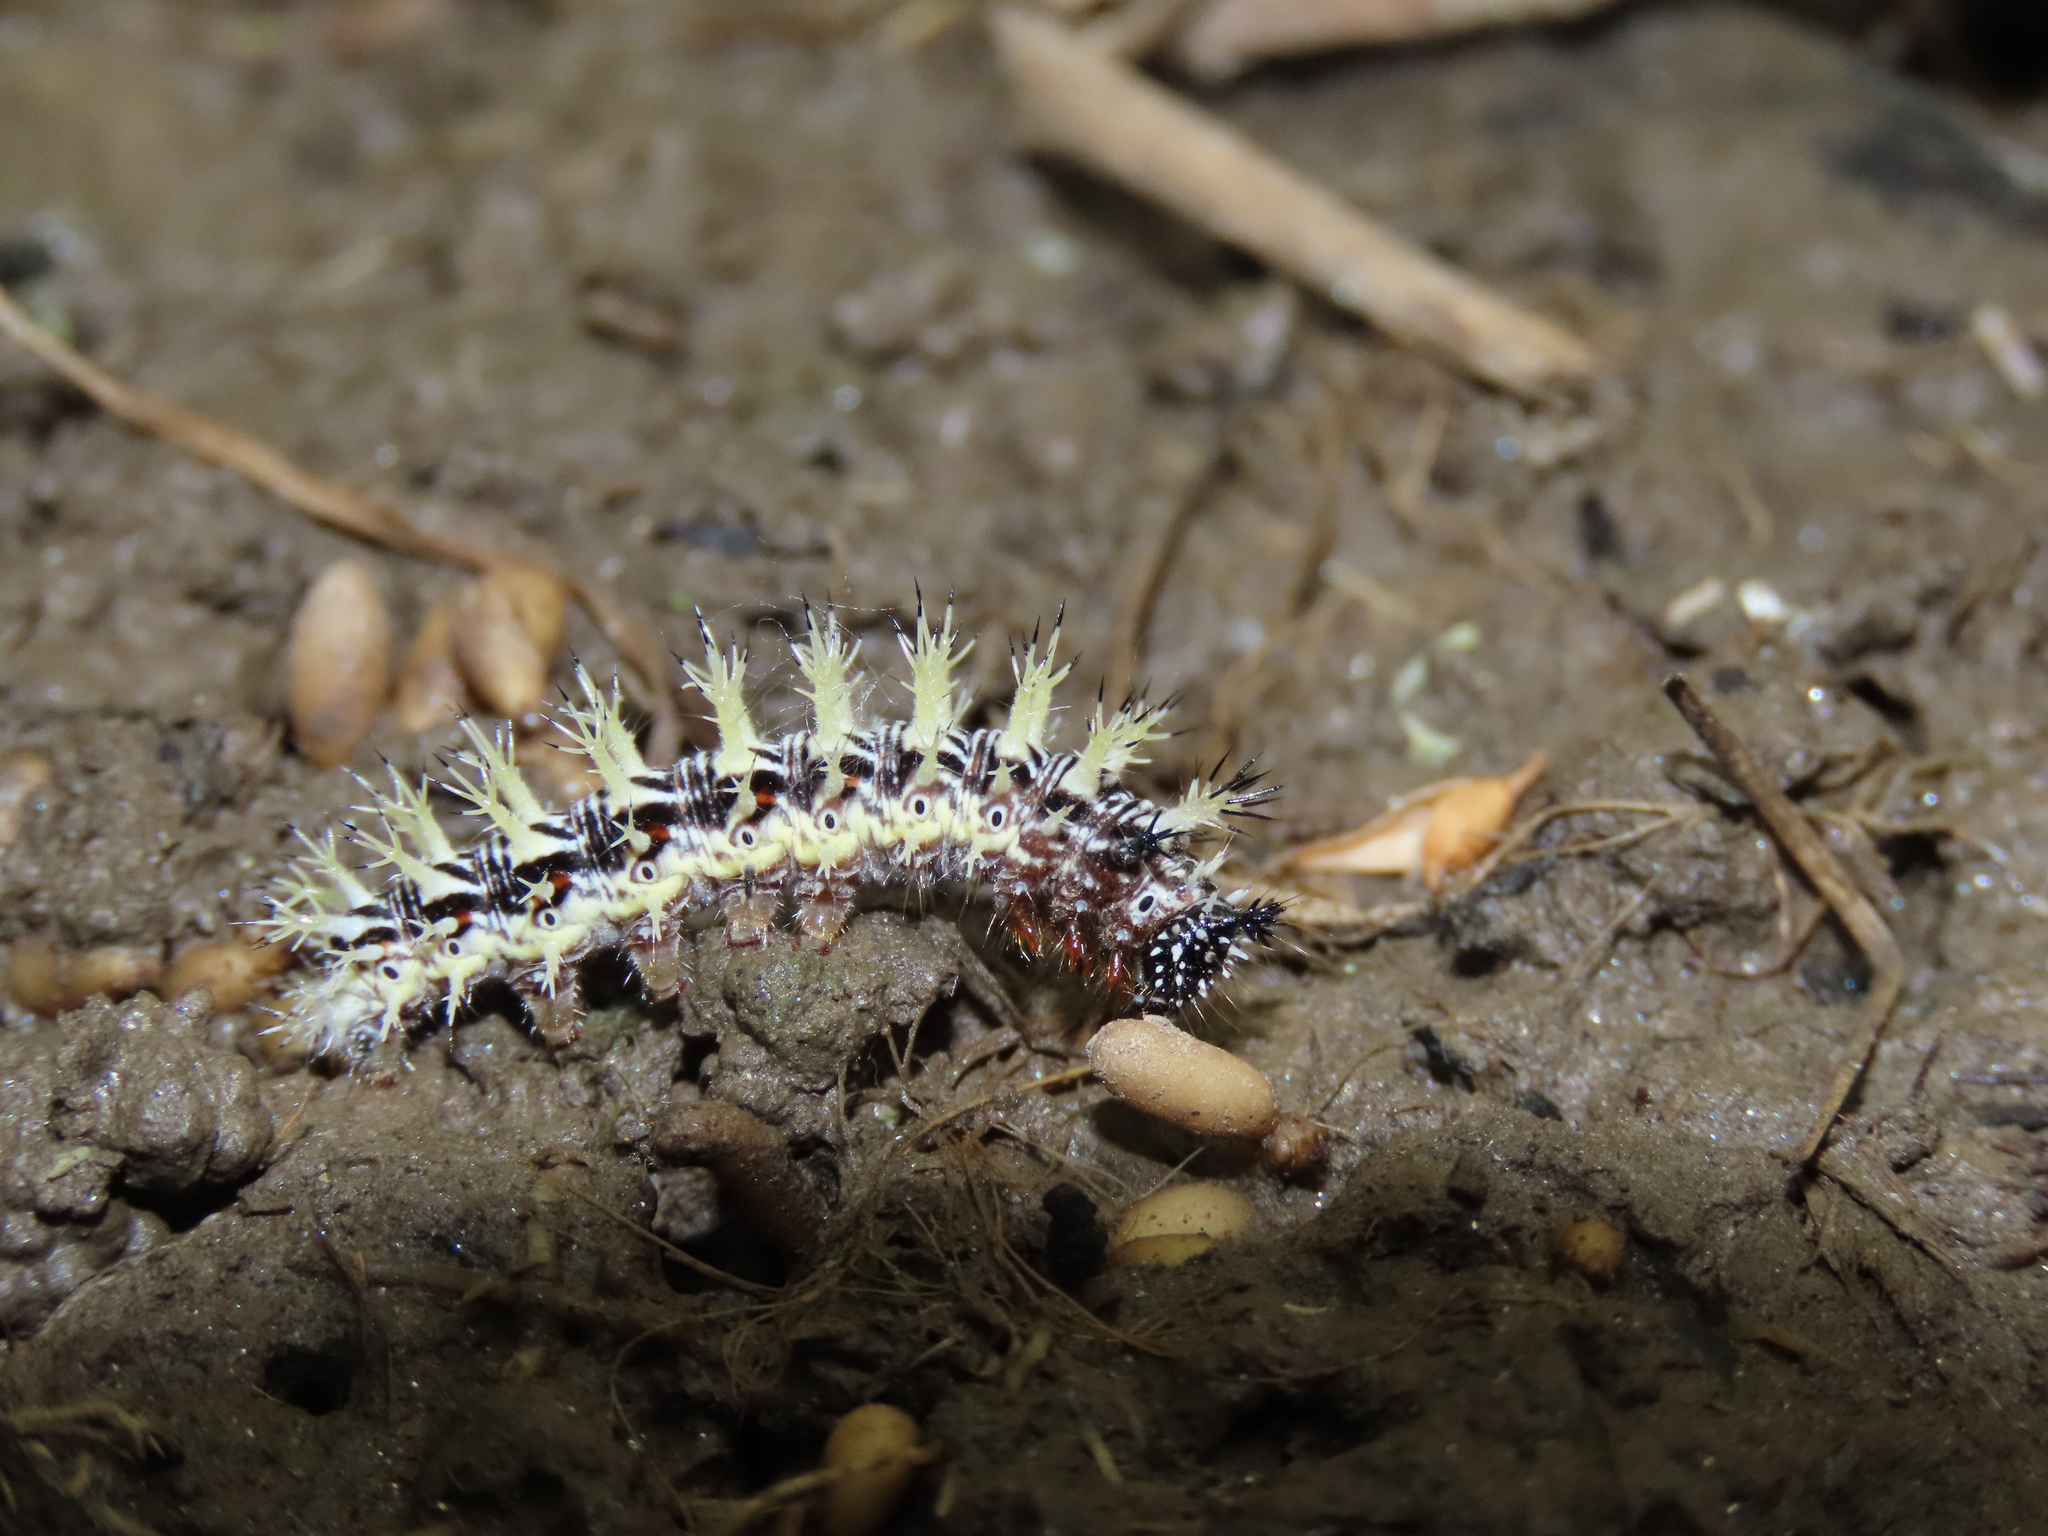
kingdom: Animalia
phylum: Arthropoda
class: Insecta
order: Lepidoptera
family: Nymphalidae
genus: Polygonia
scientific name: Polygonia comma
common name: Eastern comma
